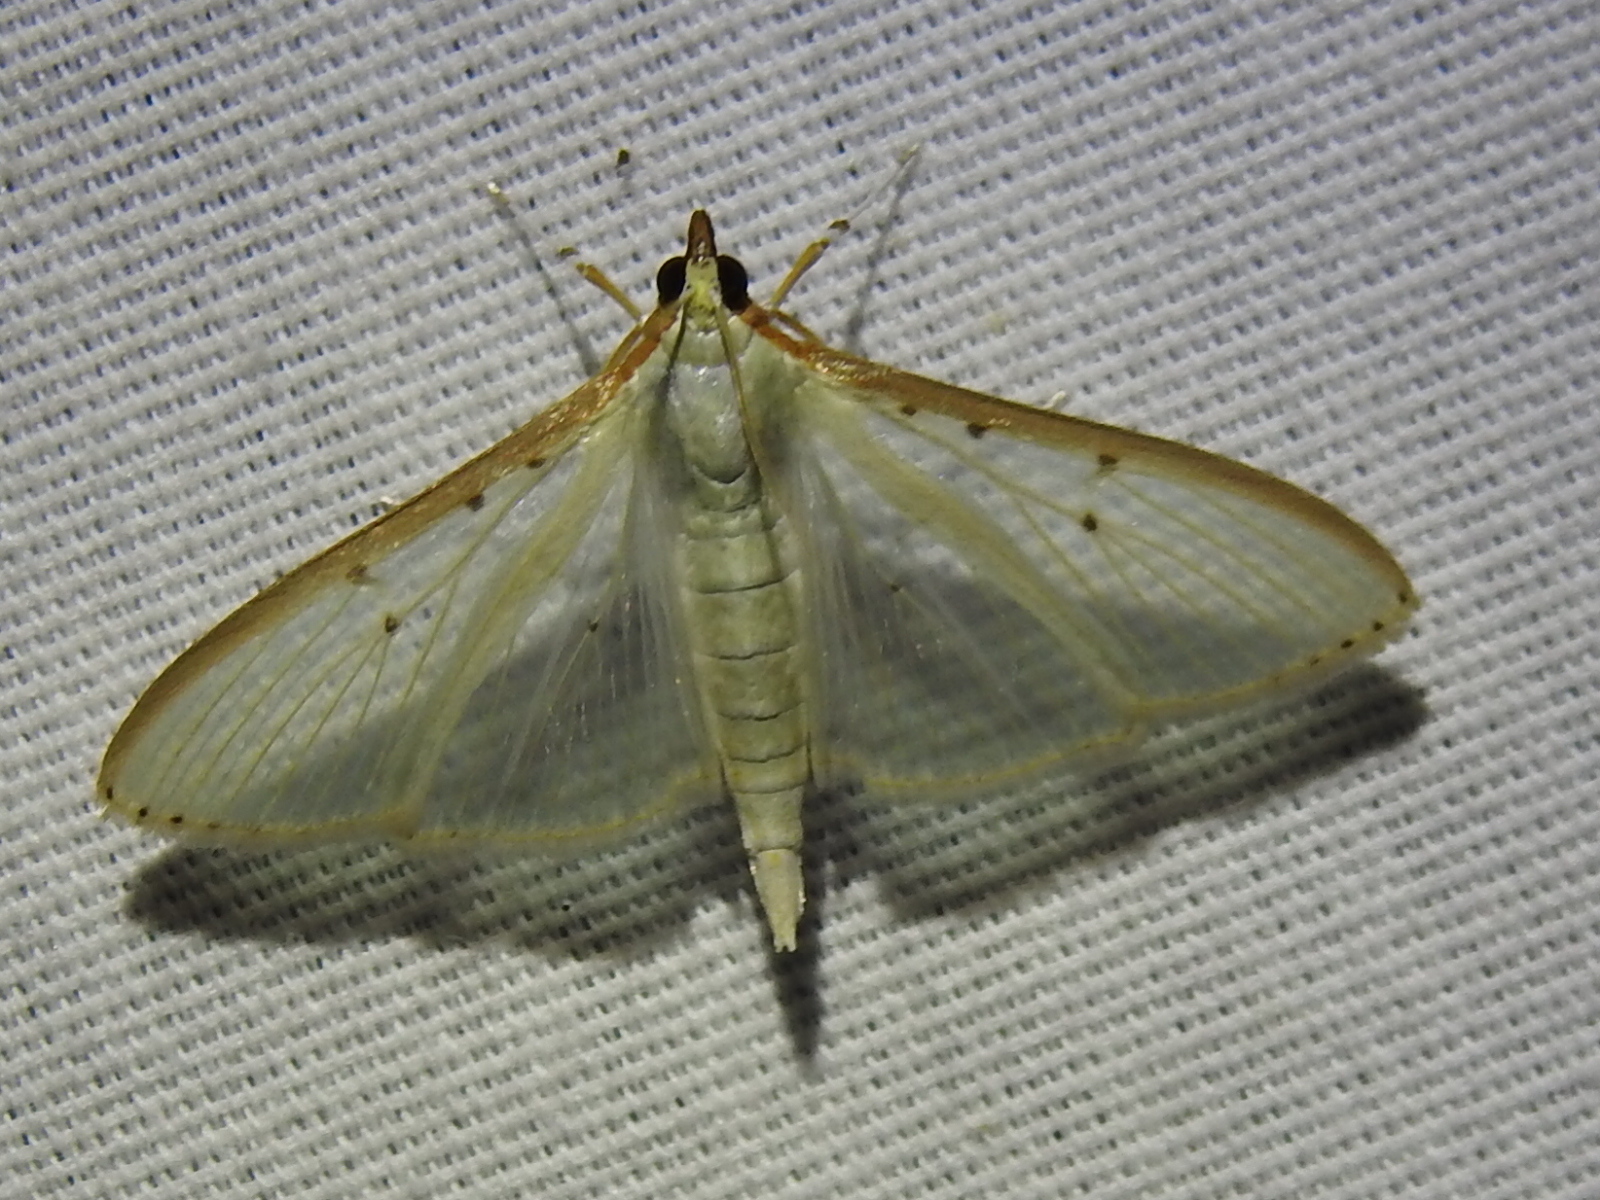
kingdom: Animalia
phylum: Arthropoda
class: Insecta
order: Lepidoptera
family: Crambidae
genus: Palpita
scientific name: Palpita quadristigmalis
